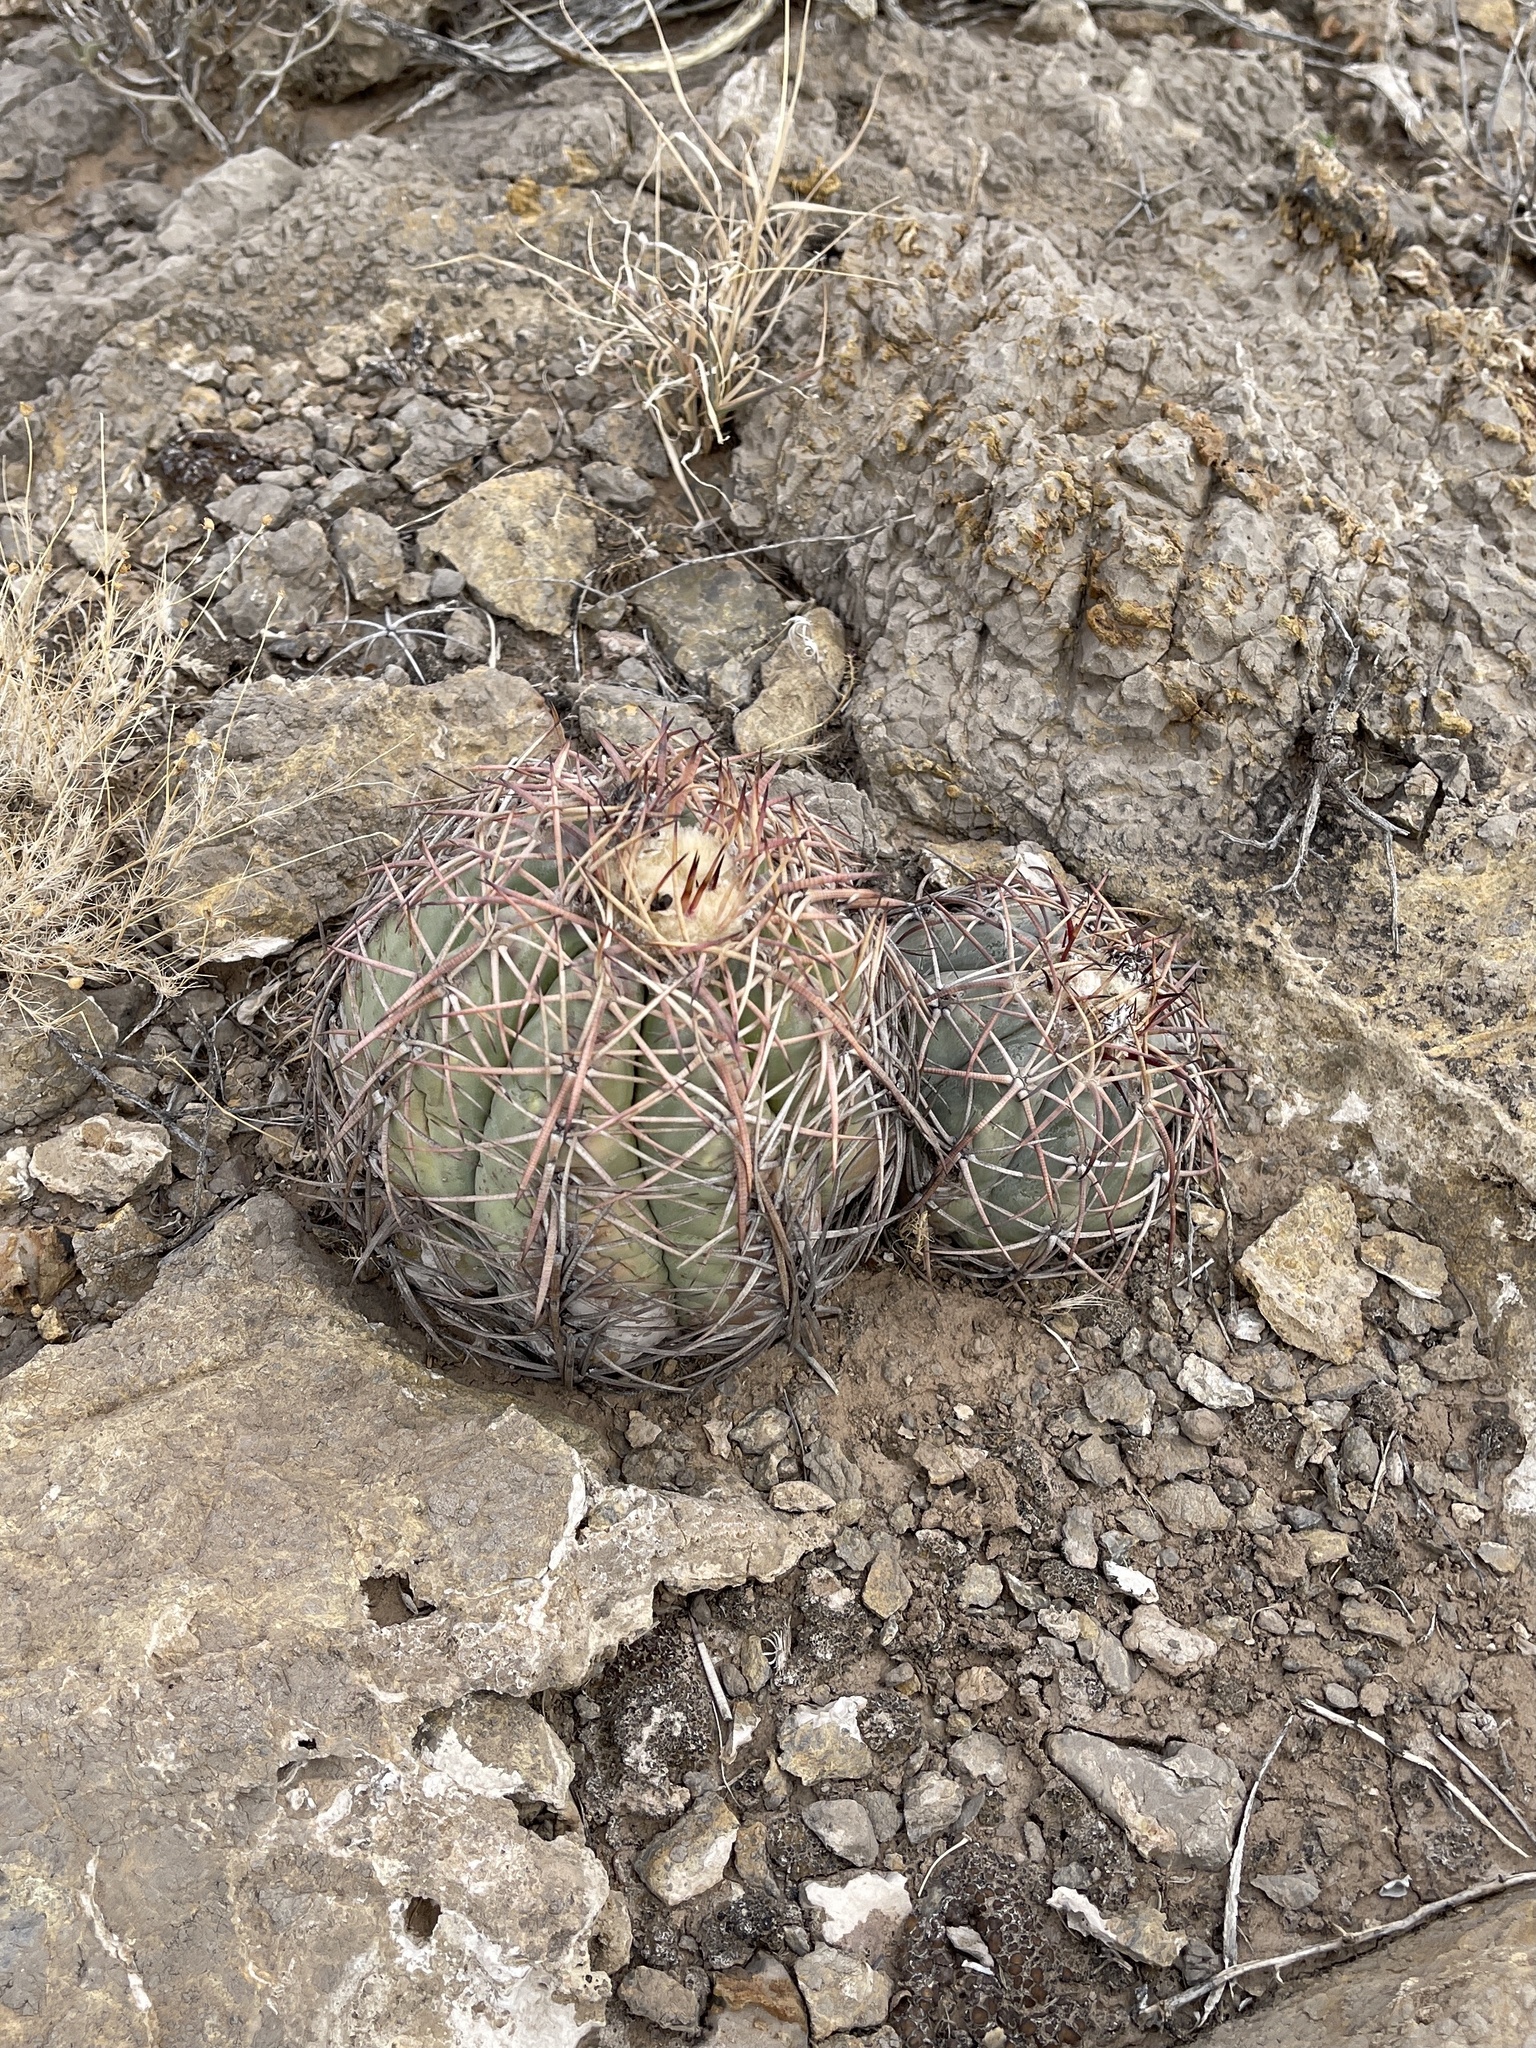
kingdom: Plantae
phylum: Tracheophyta
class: Magnoliopsida
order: Caryophyllales
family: Cactaceae
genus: Echinocactus
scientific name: Echinocactus horizonthalonius
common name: Devilshead
